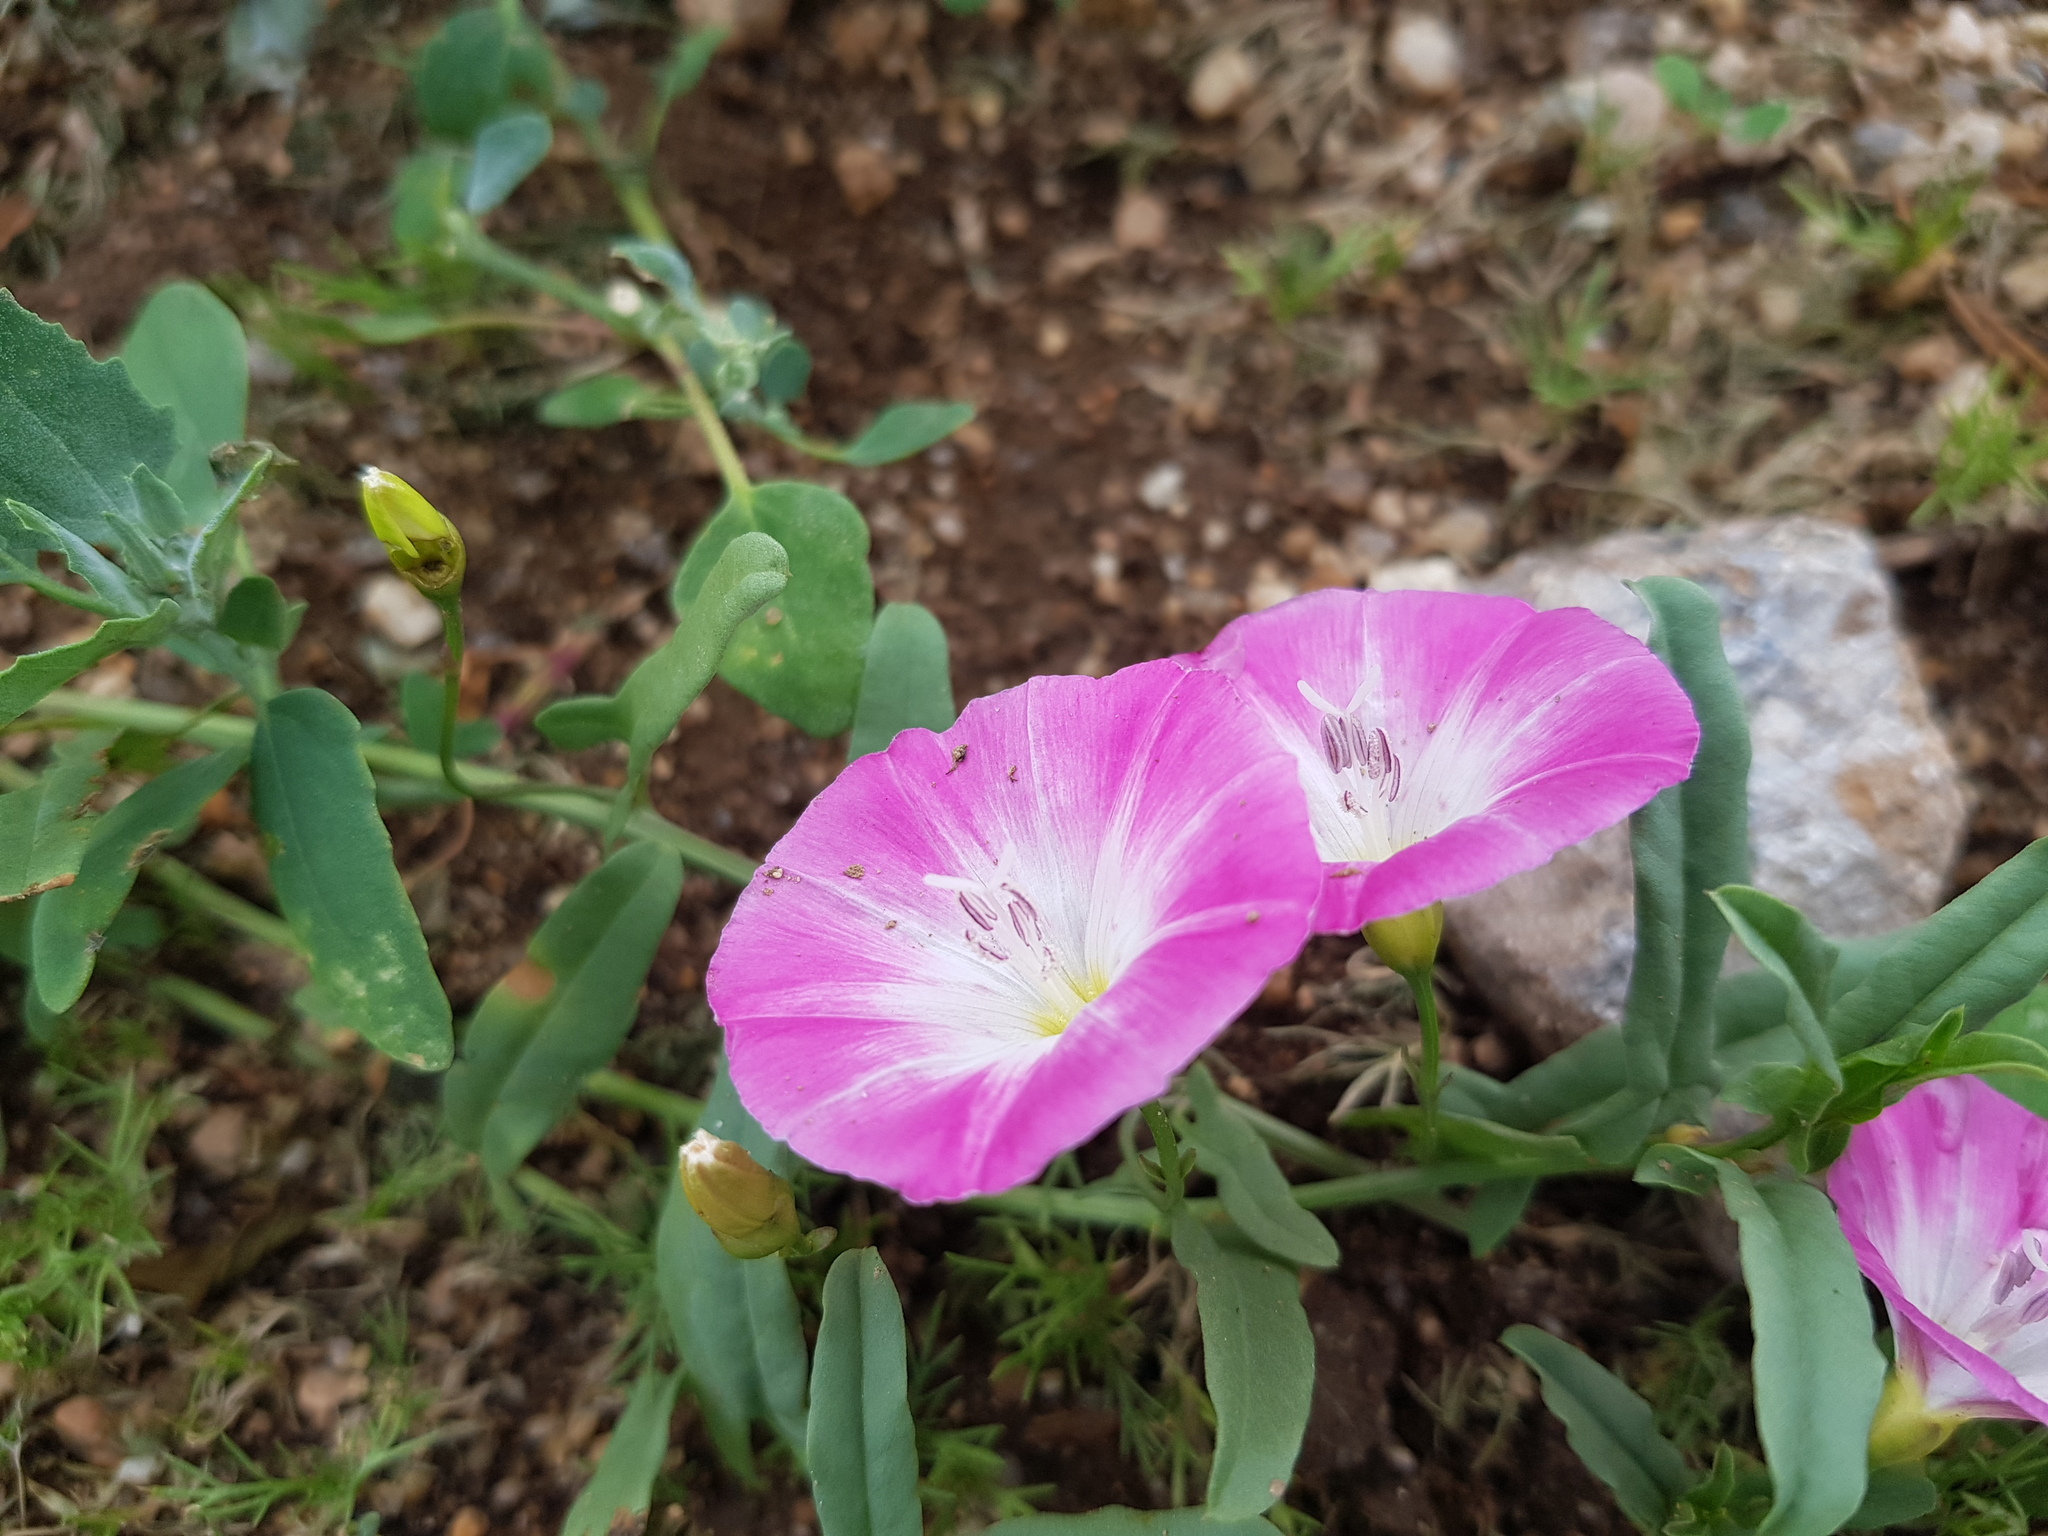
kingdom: Plantae
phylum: Tracheophyta
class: Magnoliopsida
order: Solanales
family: Convolvulaceae
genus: Convolvulus
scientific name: Convolvulus arvensis
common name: Field bindweed
